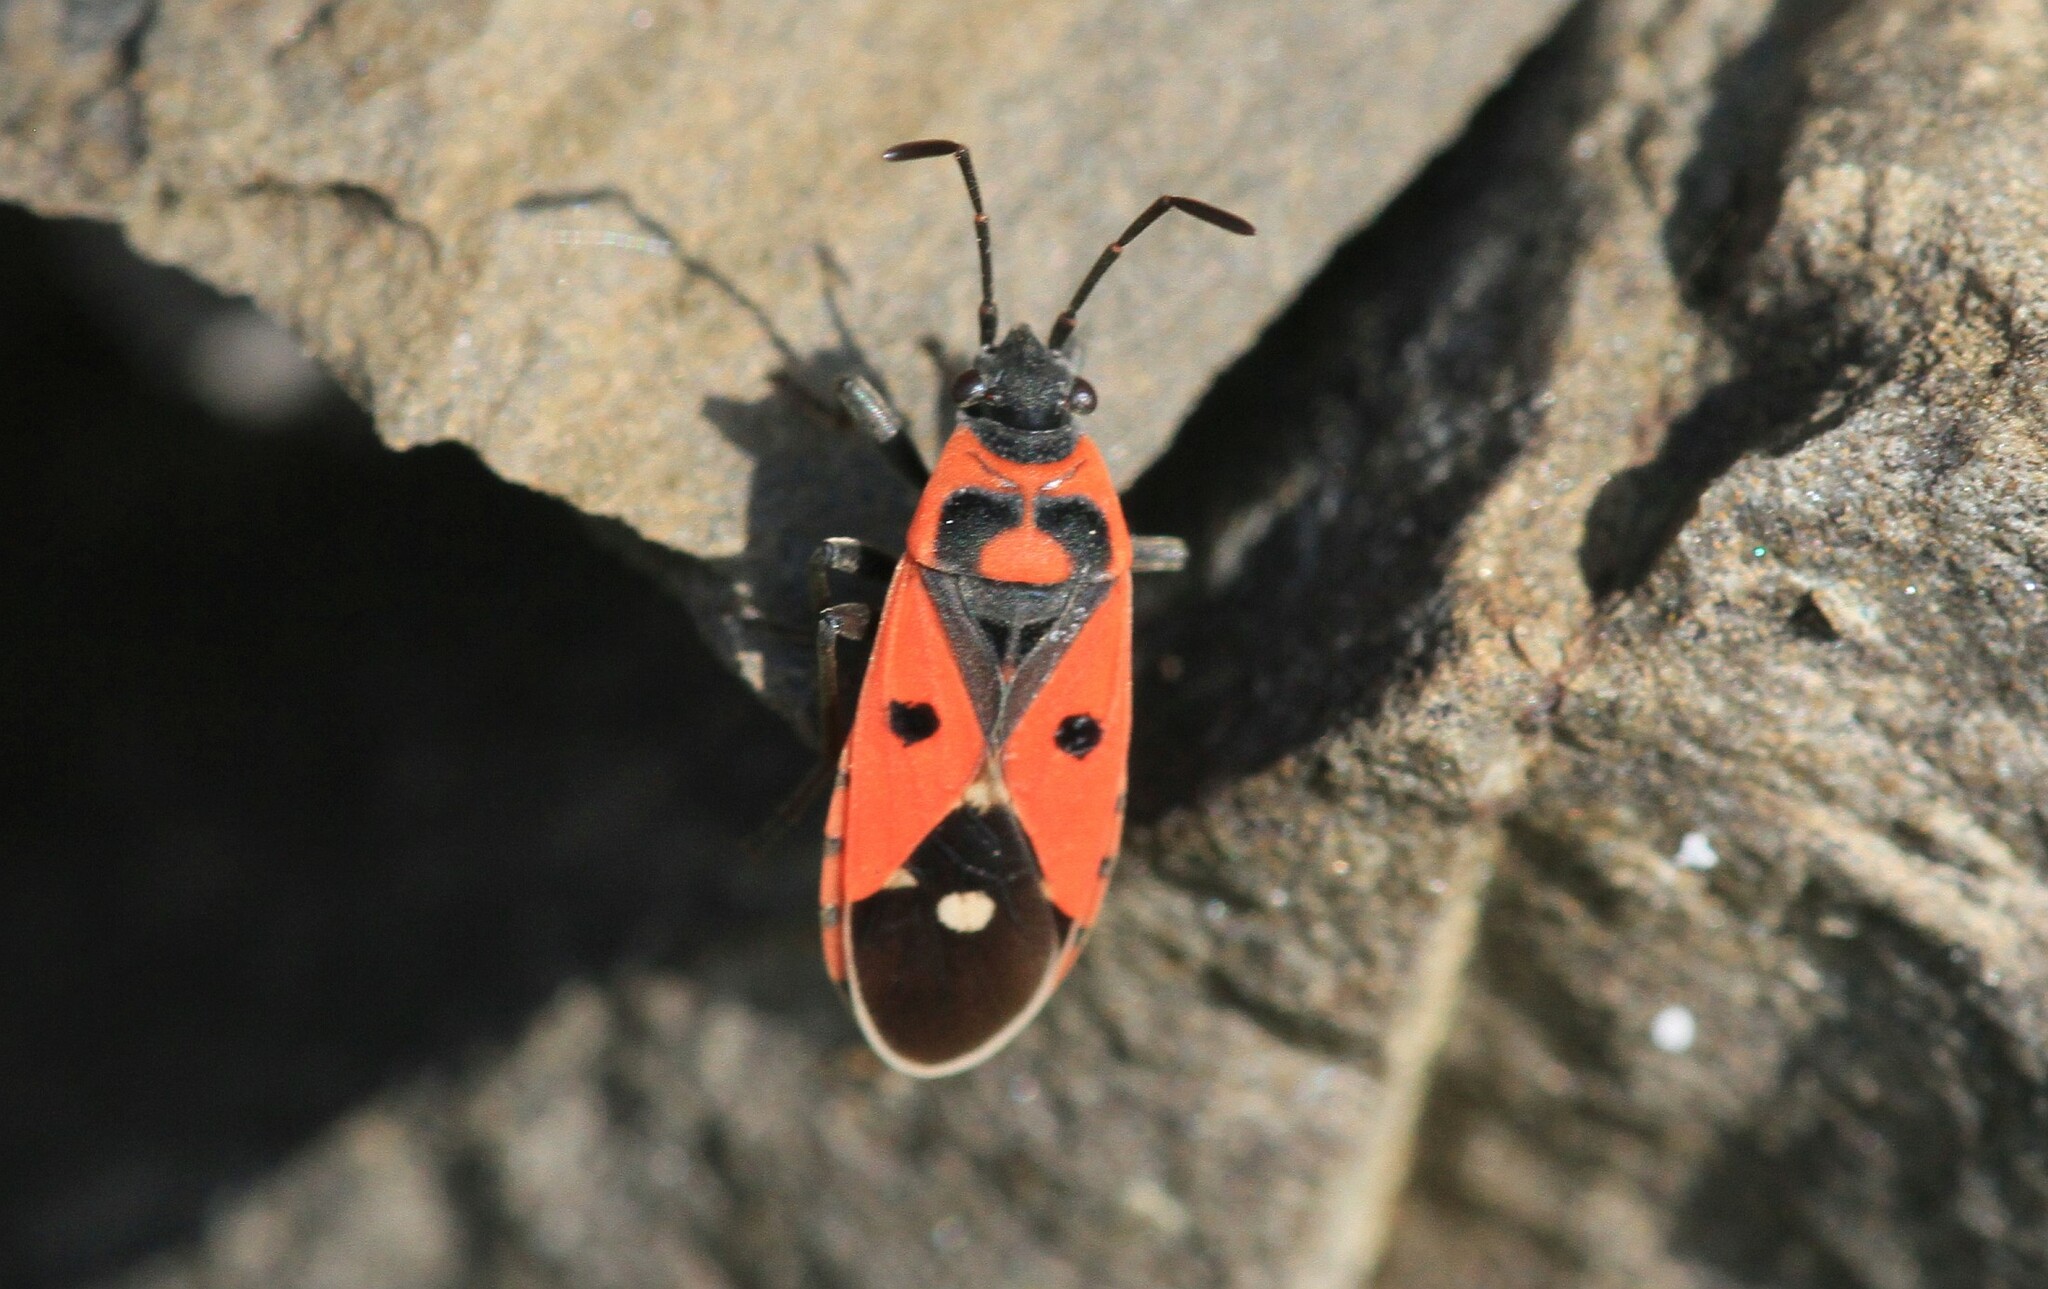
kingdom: Animalia
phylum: Arthropoda
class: Insecta
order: Hemiptera
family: Lygaeidae
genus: Melanocoryphus
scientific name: Melanocoryphus albomaculatus
